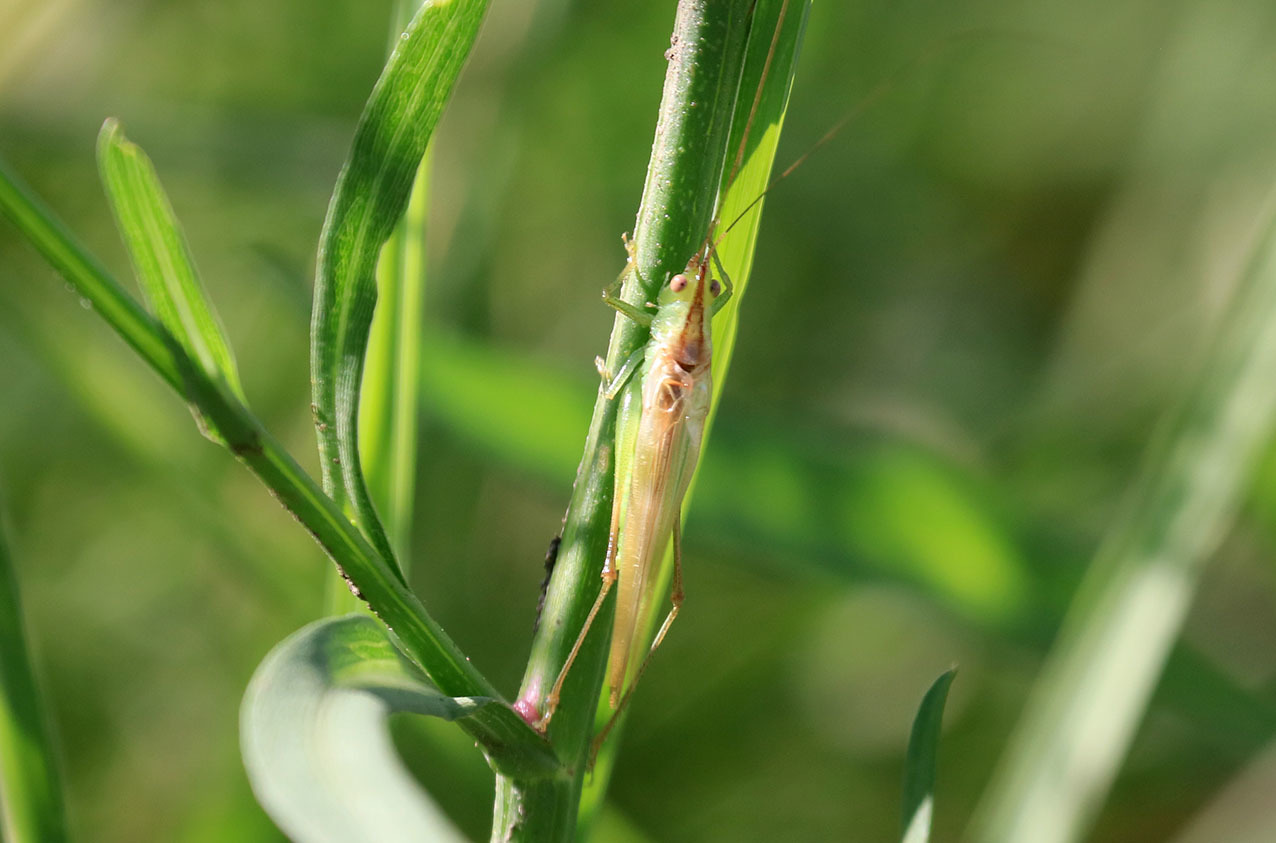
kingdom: Animalia
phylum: Arthropoda
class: Insecta
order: Orthoptera
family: Tettigoniidae
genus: Conocephalus
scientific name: Conocephalus longipes
